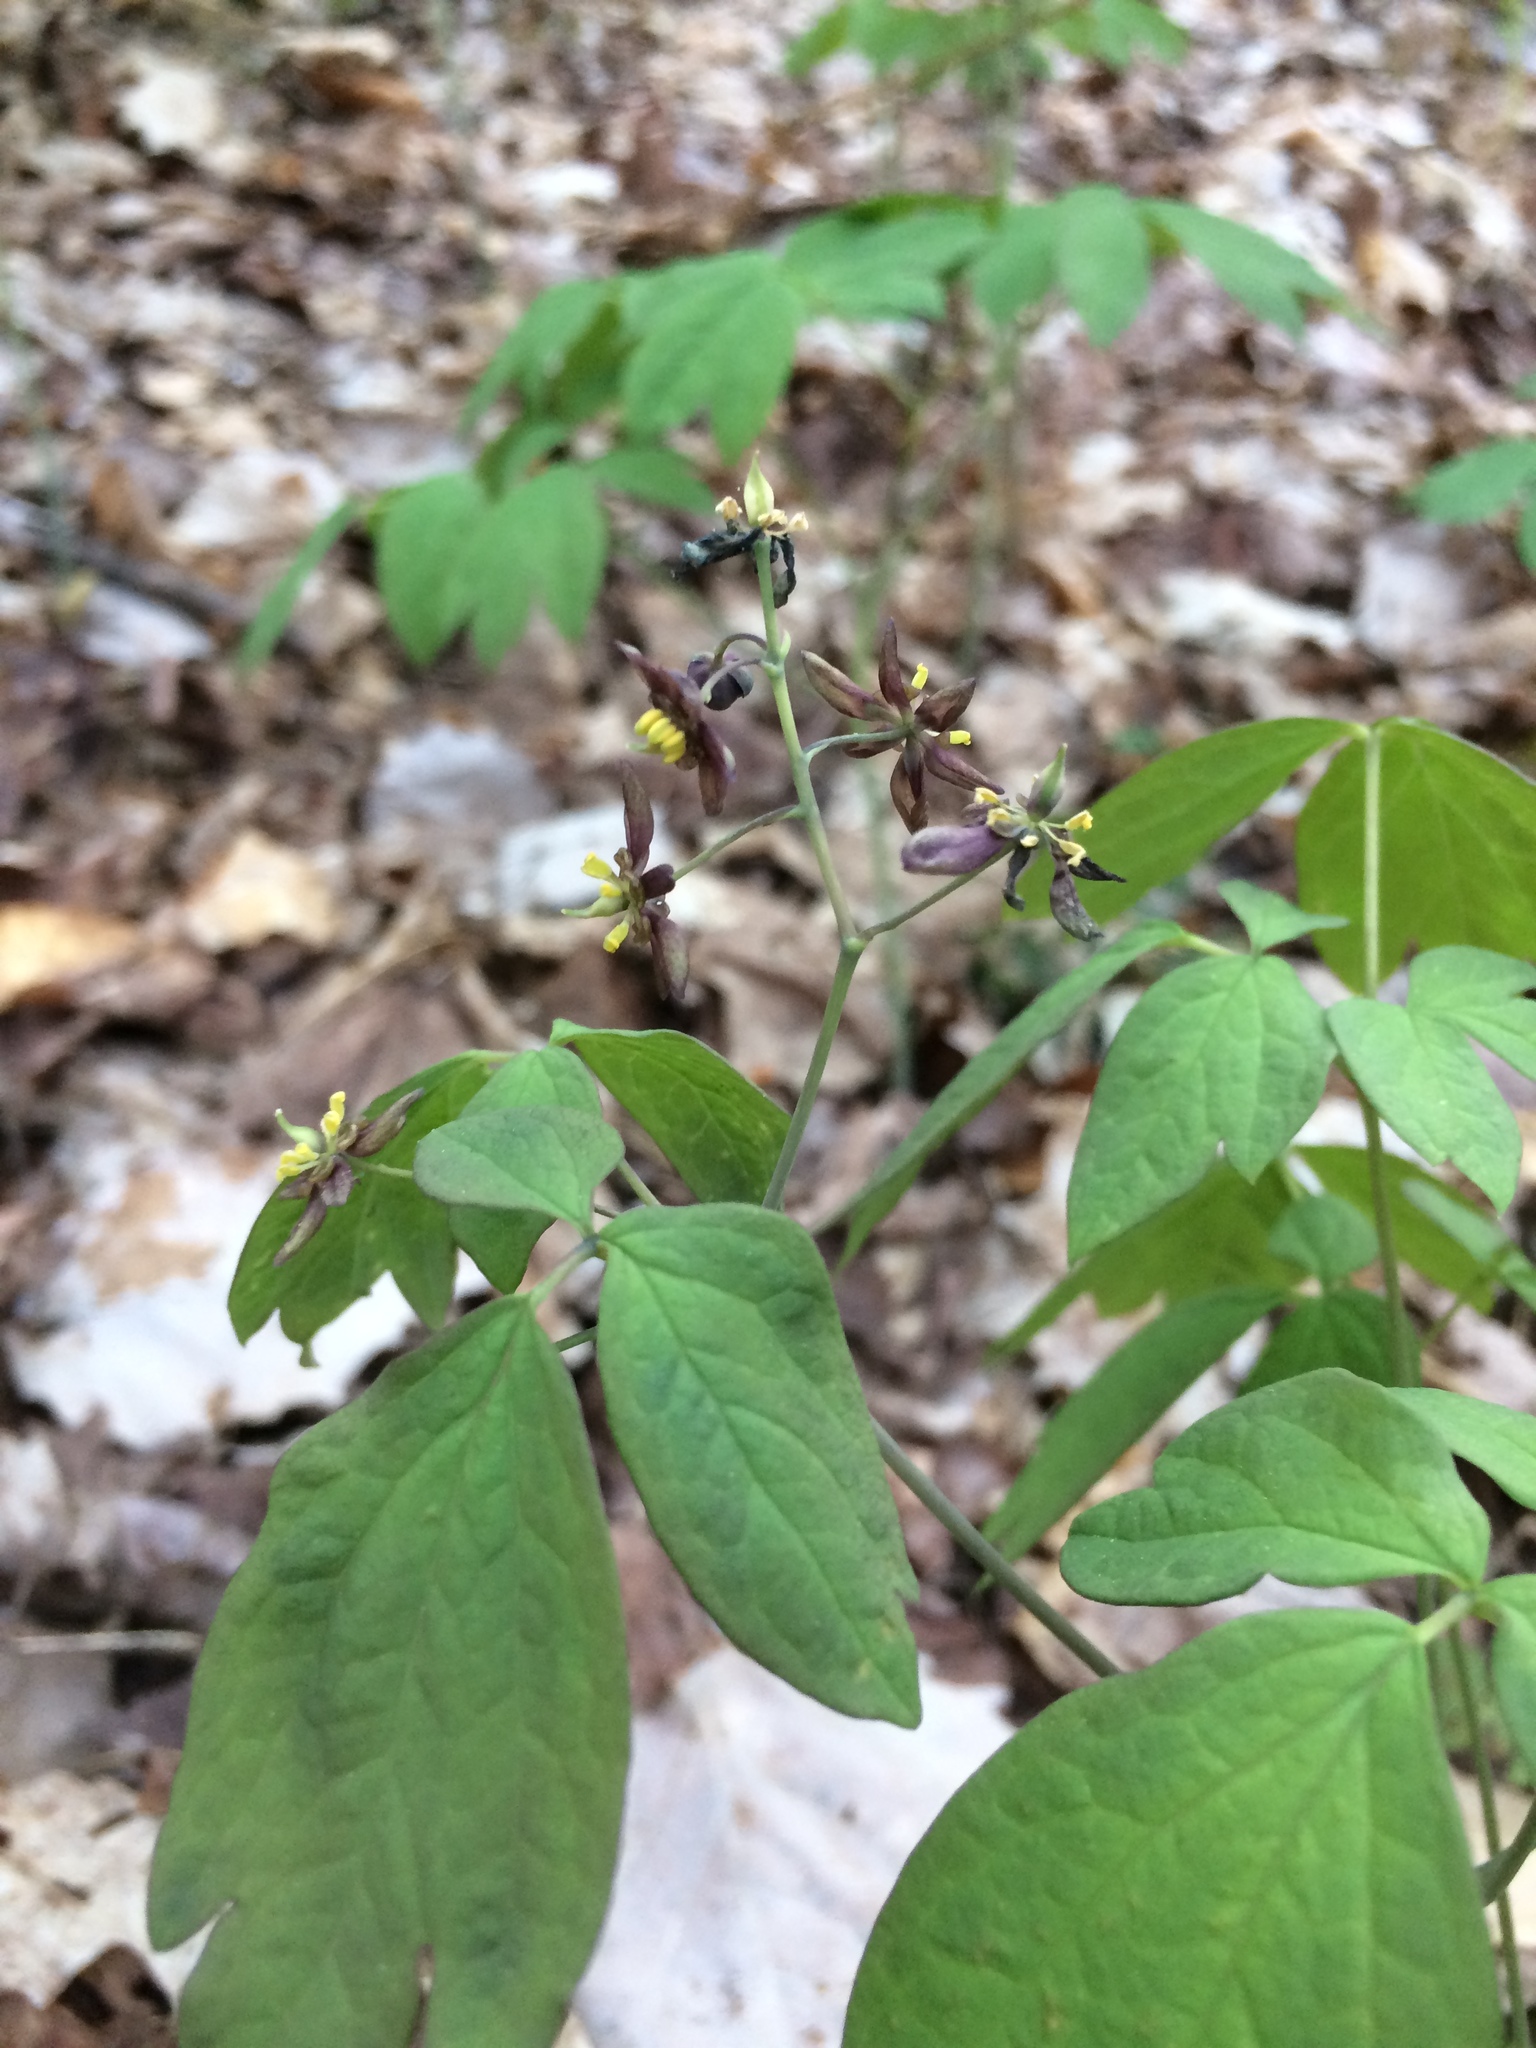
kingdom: Plantae
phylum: Tracheophyta
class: Magnoliopsida
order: Ranunculales
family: Berberidaceae
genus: Caulophyllum
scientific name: Caulophyllum giganteum
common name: Blue cohosh
